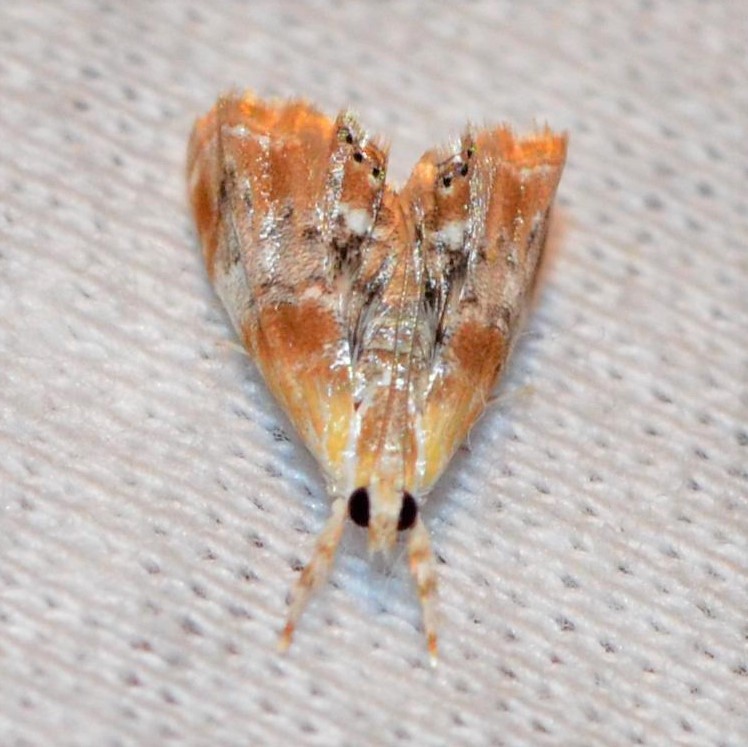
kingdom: Animalia
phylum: Arthropoda
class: Insecta
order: Lepidoptera
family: Crambidae
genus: Dicymolomia
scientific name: Dicymolomia julianalis
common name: Julia's dicymolomia moth
